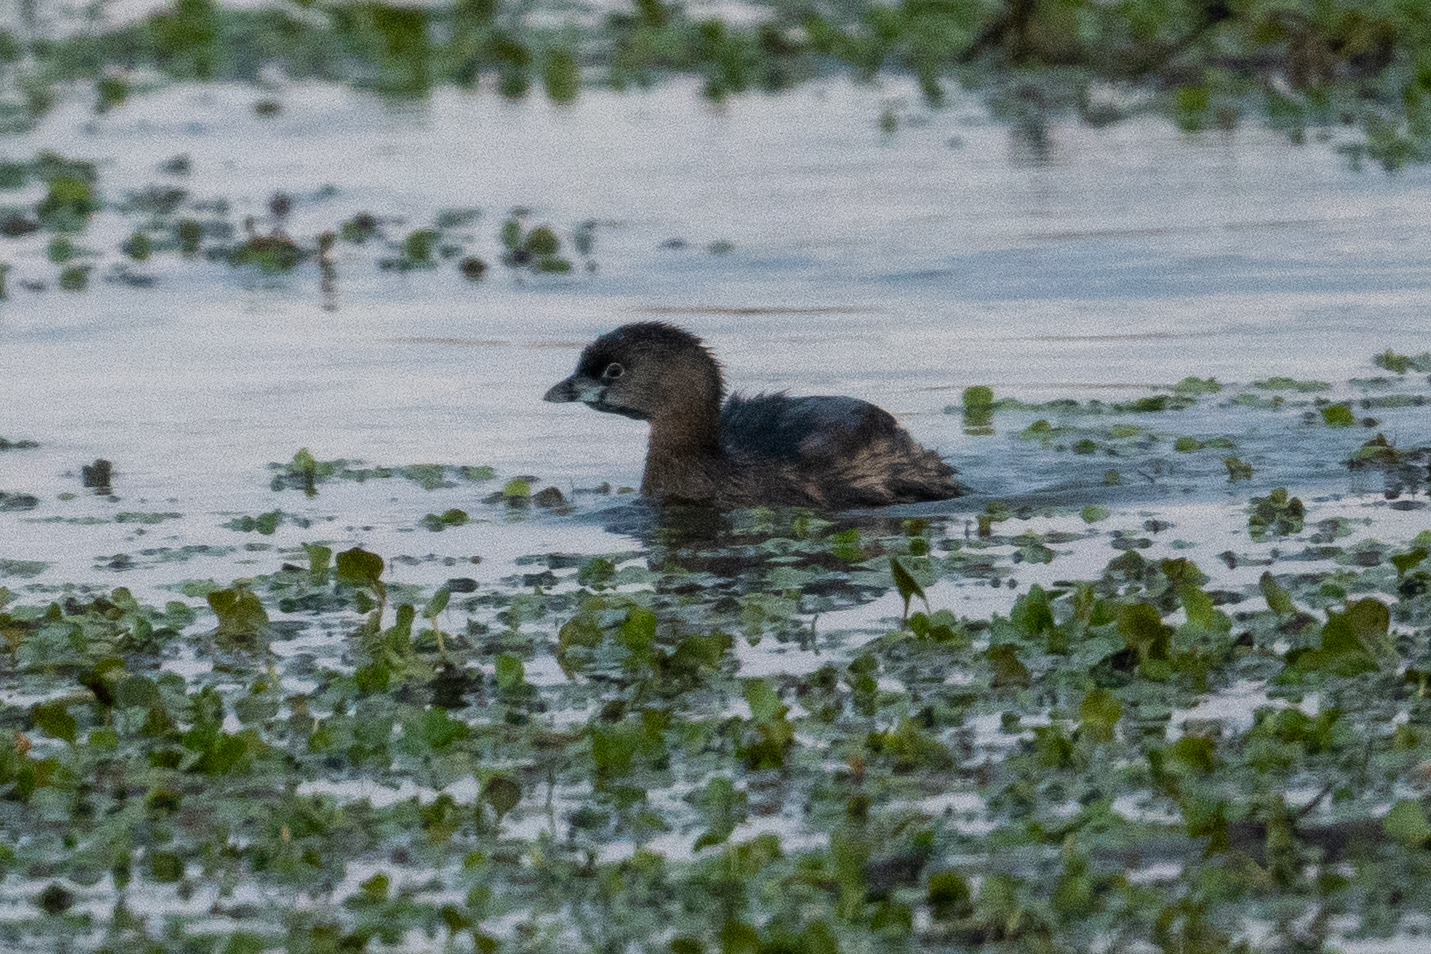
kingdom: Animalia
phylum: Chordata
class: Aves
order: Podicipediformes
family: Podicipedidae
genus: Podilymbus
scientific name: Podilymbus podiceps
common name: Pied-billed grebe
